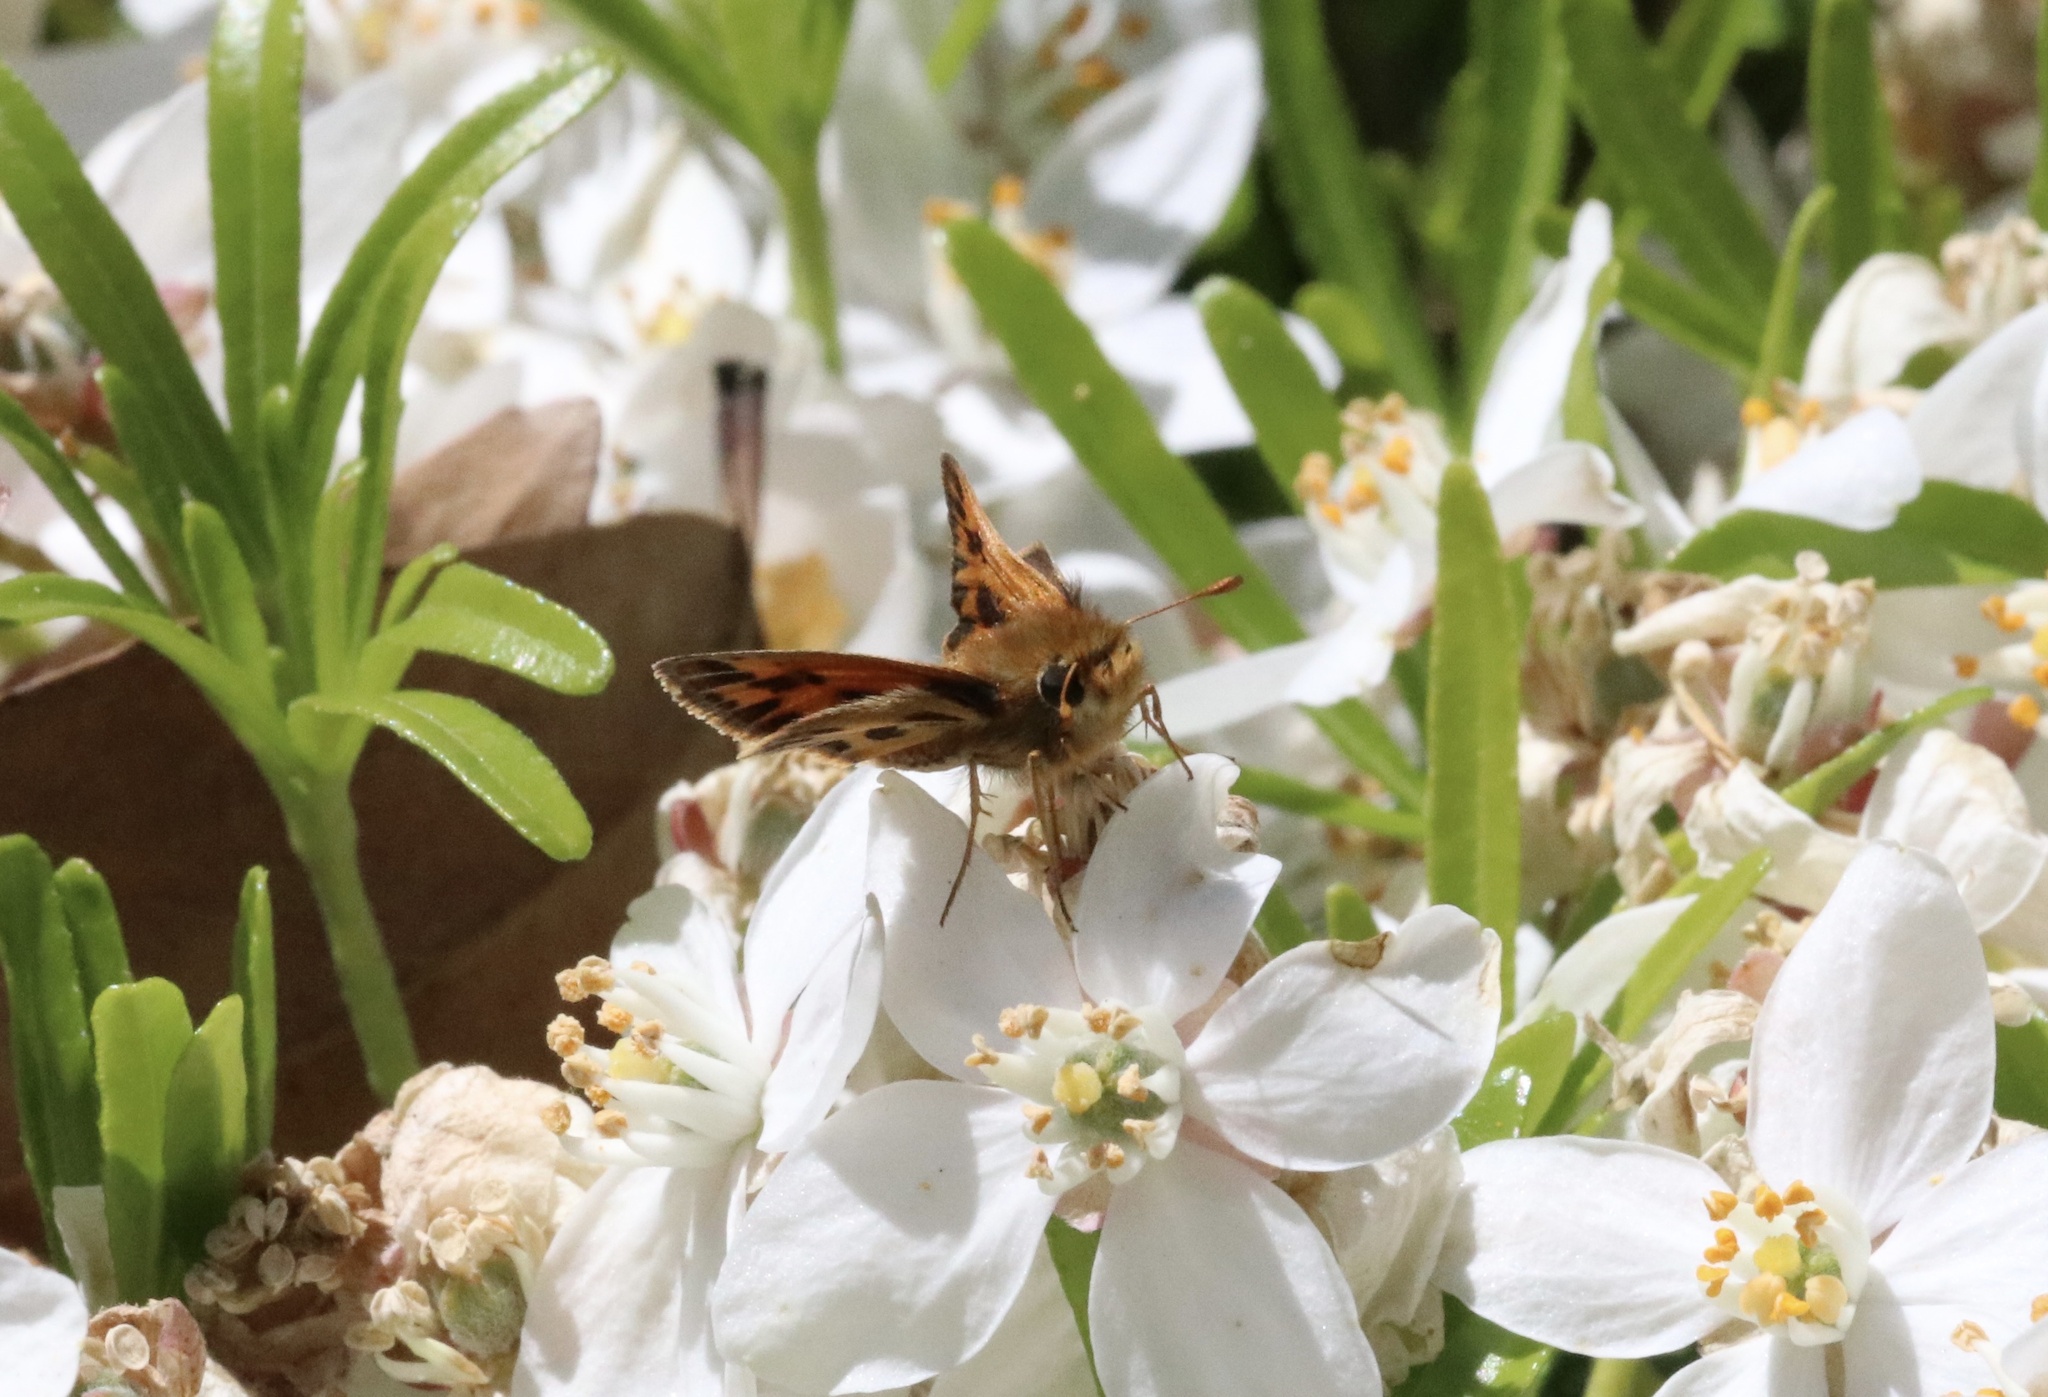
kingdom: Animalia
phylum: Arthropoda
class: Insecta
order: Lepidoptera
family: Hesperiidae
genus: Hylephila
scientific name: Hylephila fasciolata
